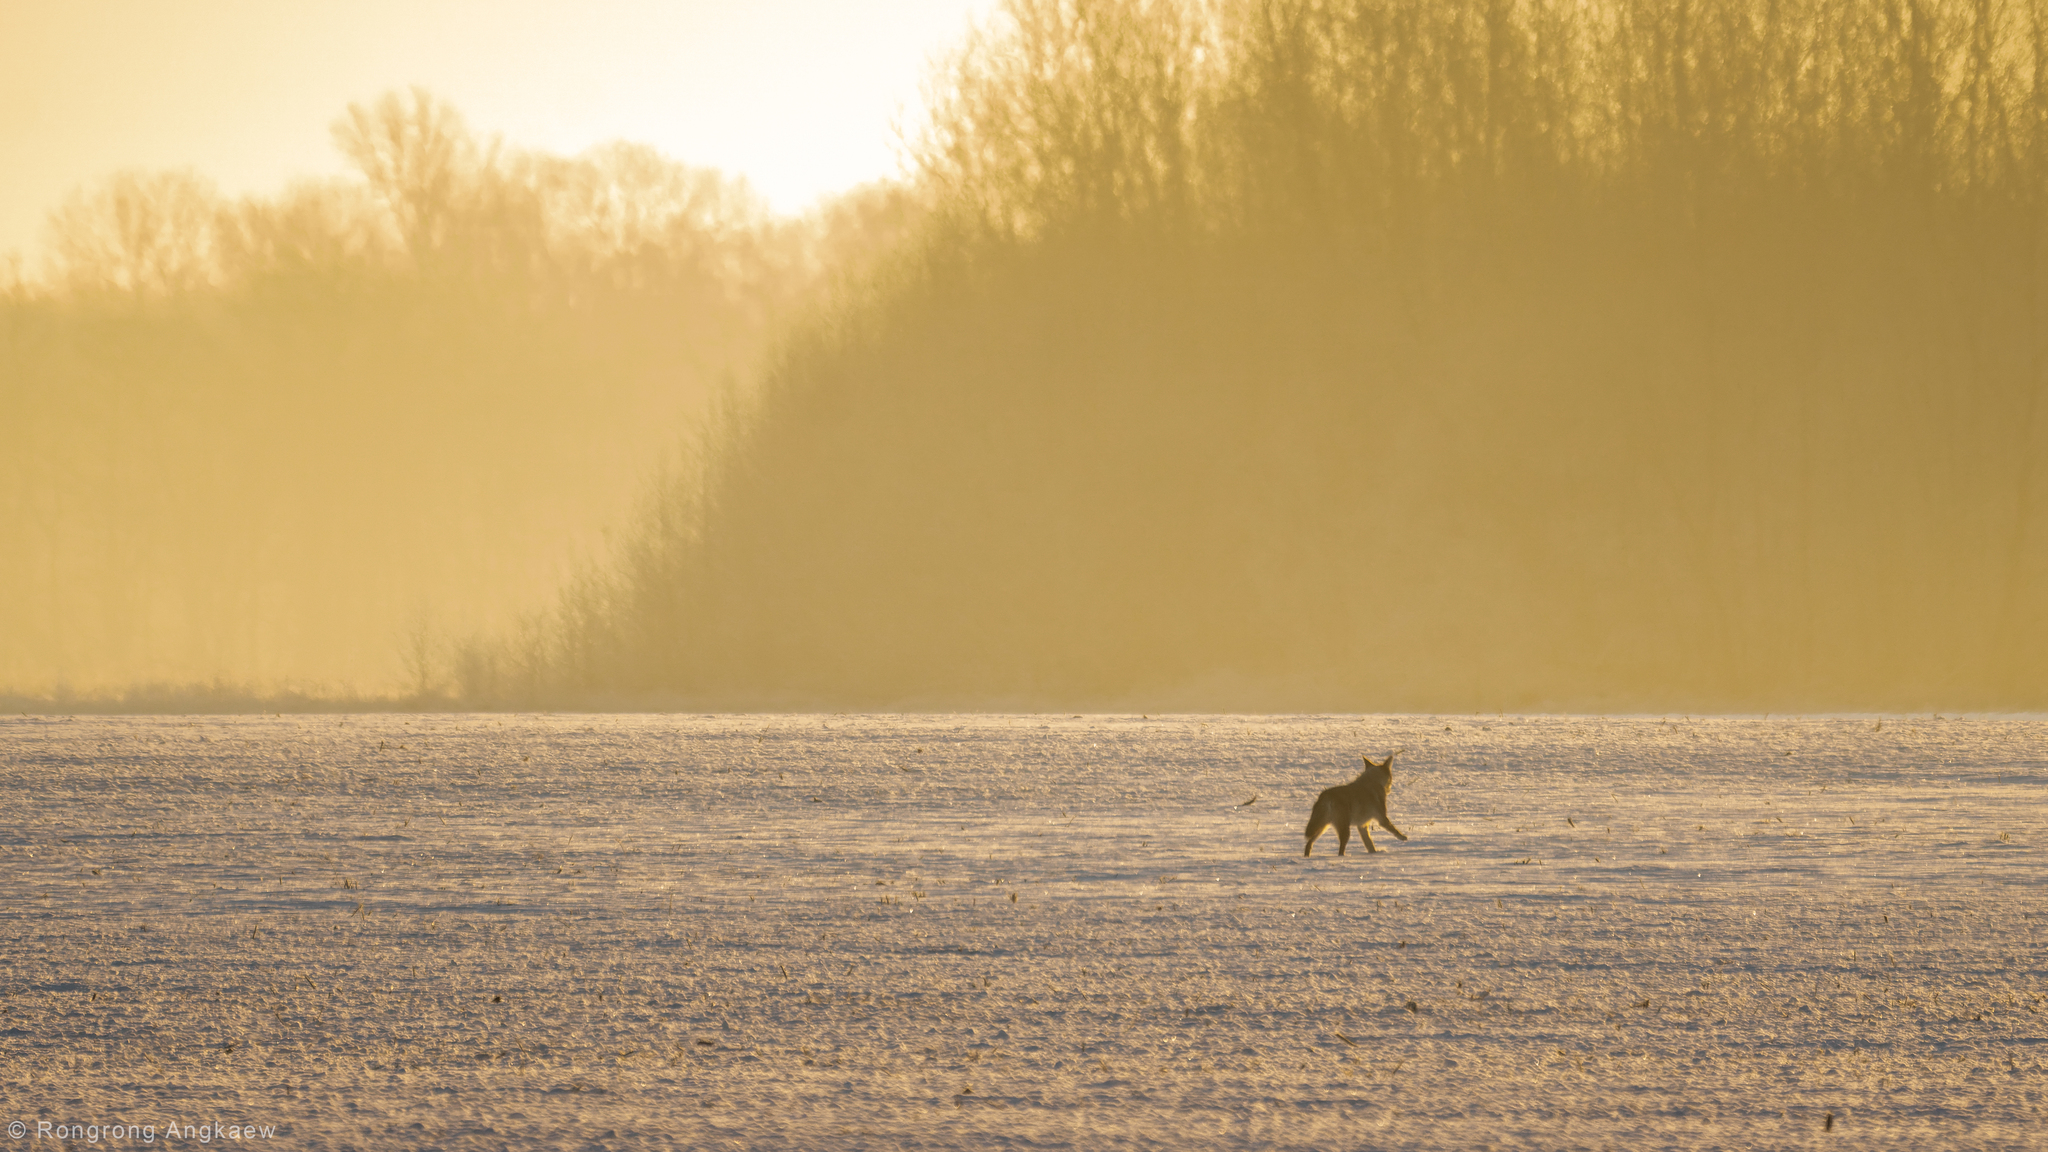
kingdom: Animalia
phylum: Chordata
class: Mammalia
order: Carnivora
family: Canidae
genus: Canis
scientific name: Canis latrans
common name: Coyote
